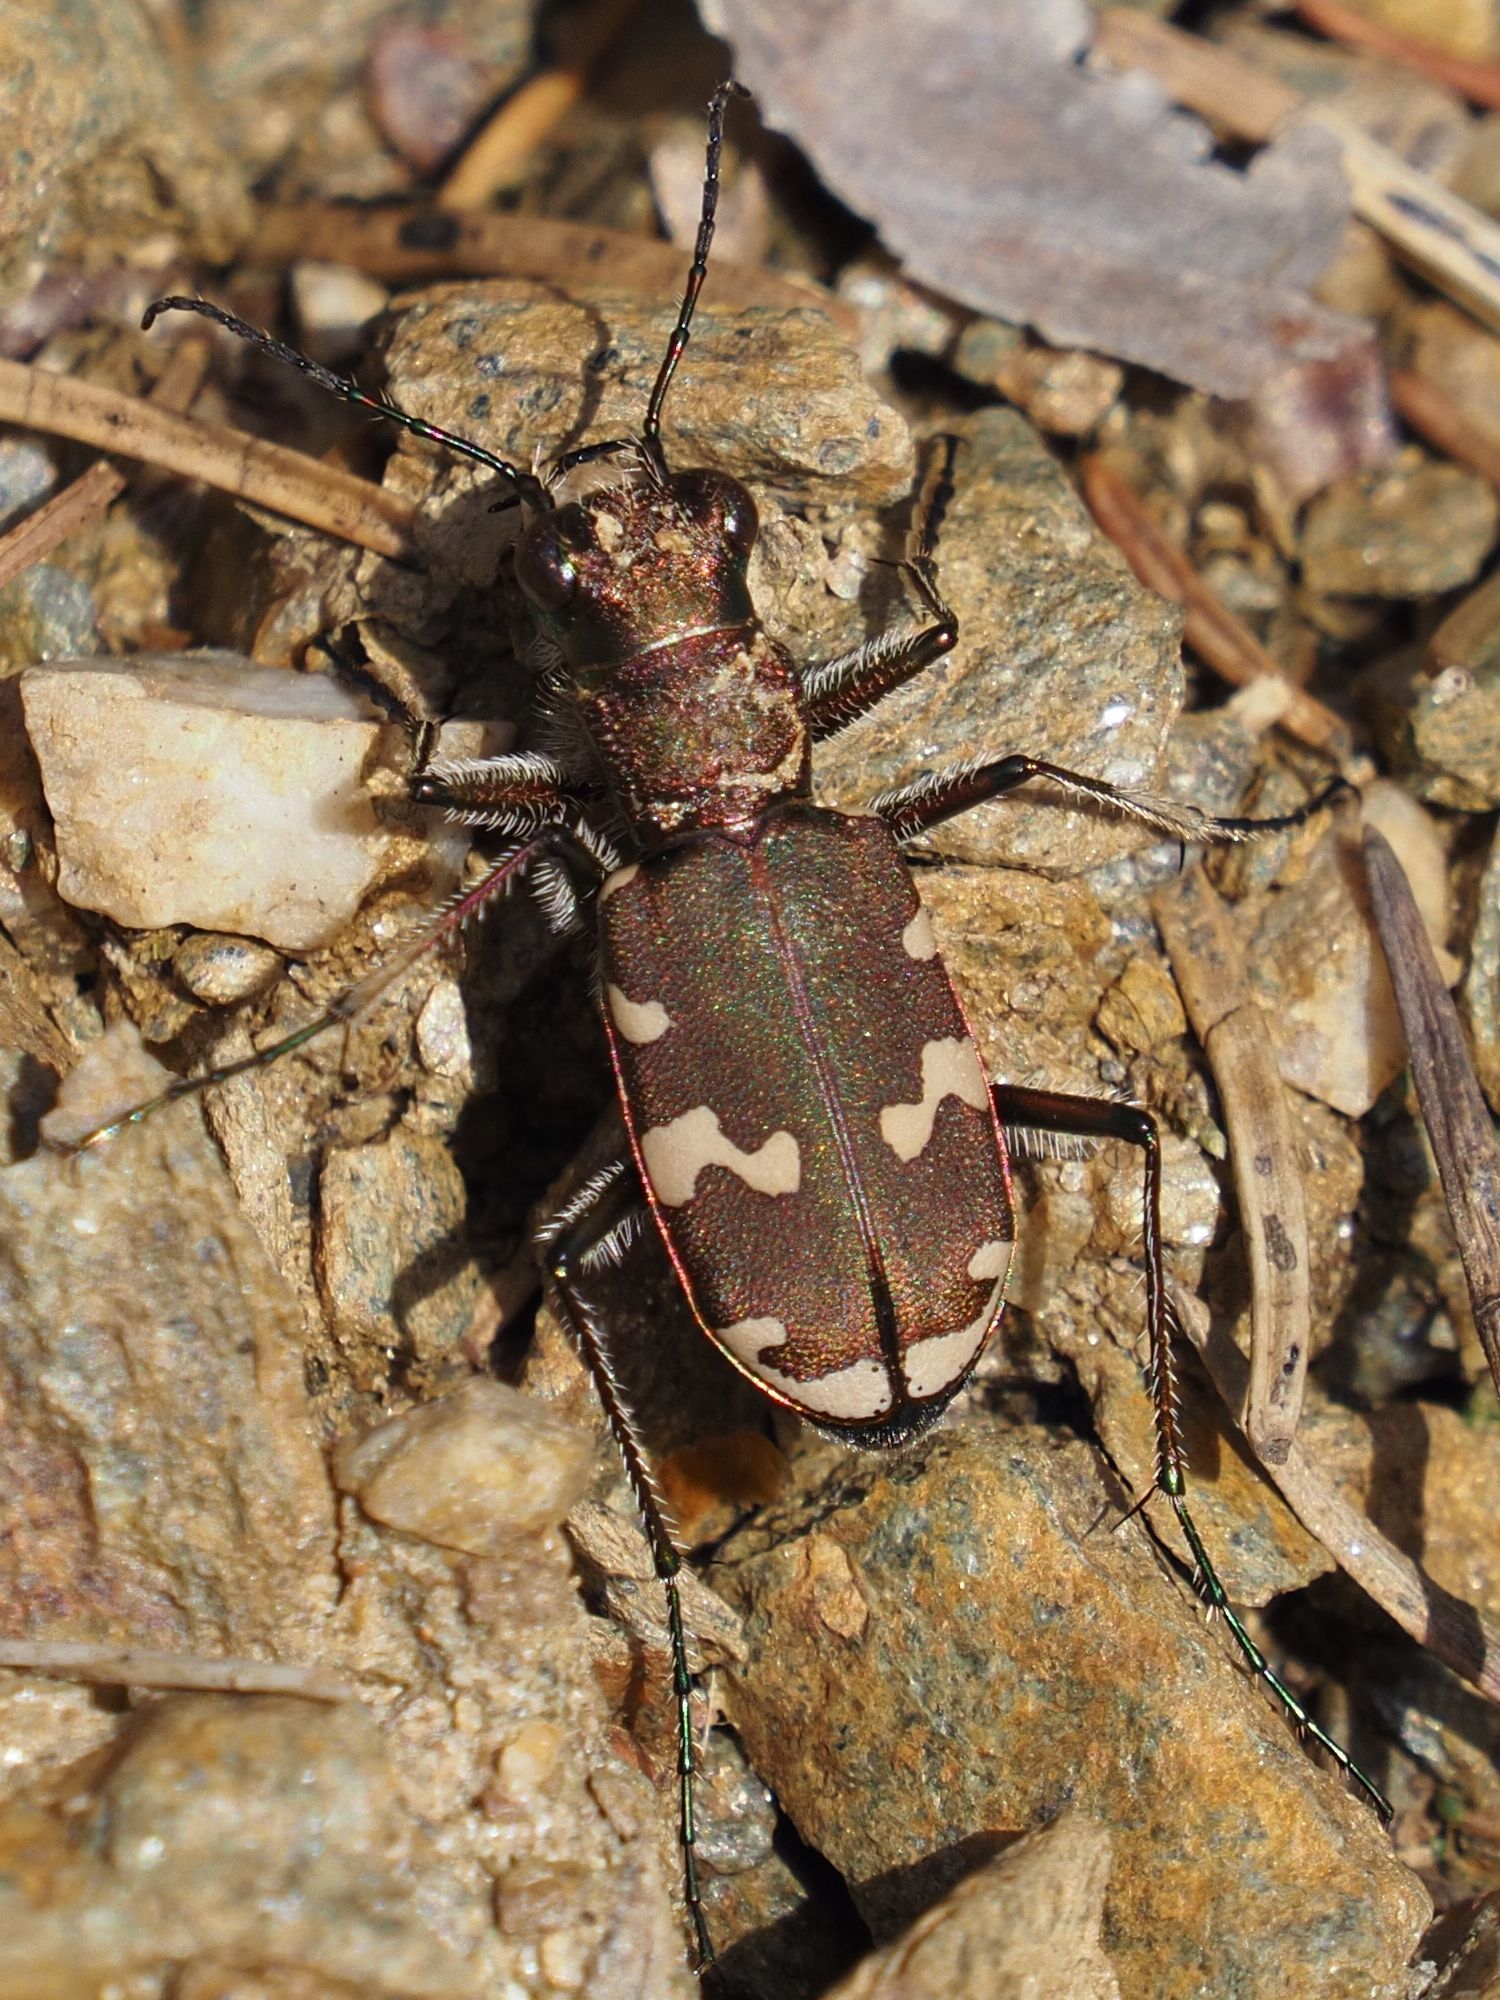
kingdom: Animalia
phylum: Arthropoda
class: Insecta
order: Coleoptera
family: Carabidae
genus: Cicindela
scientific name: Cicindela sylvicola
